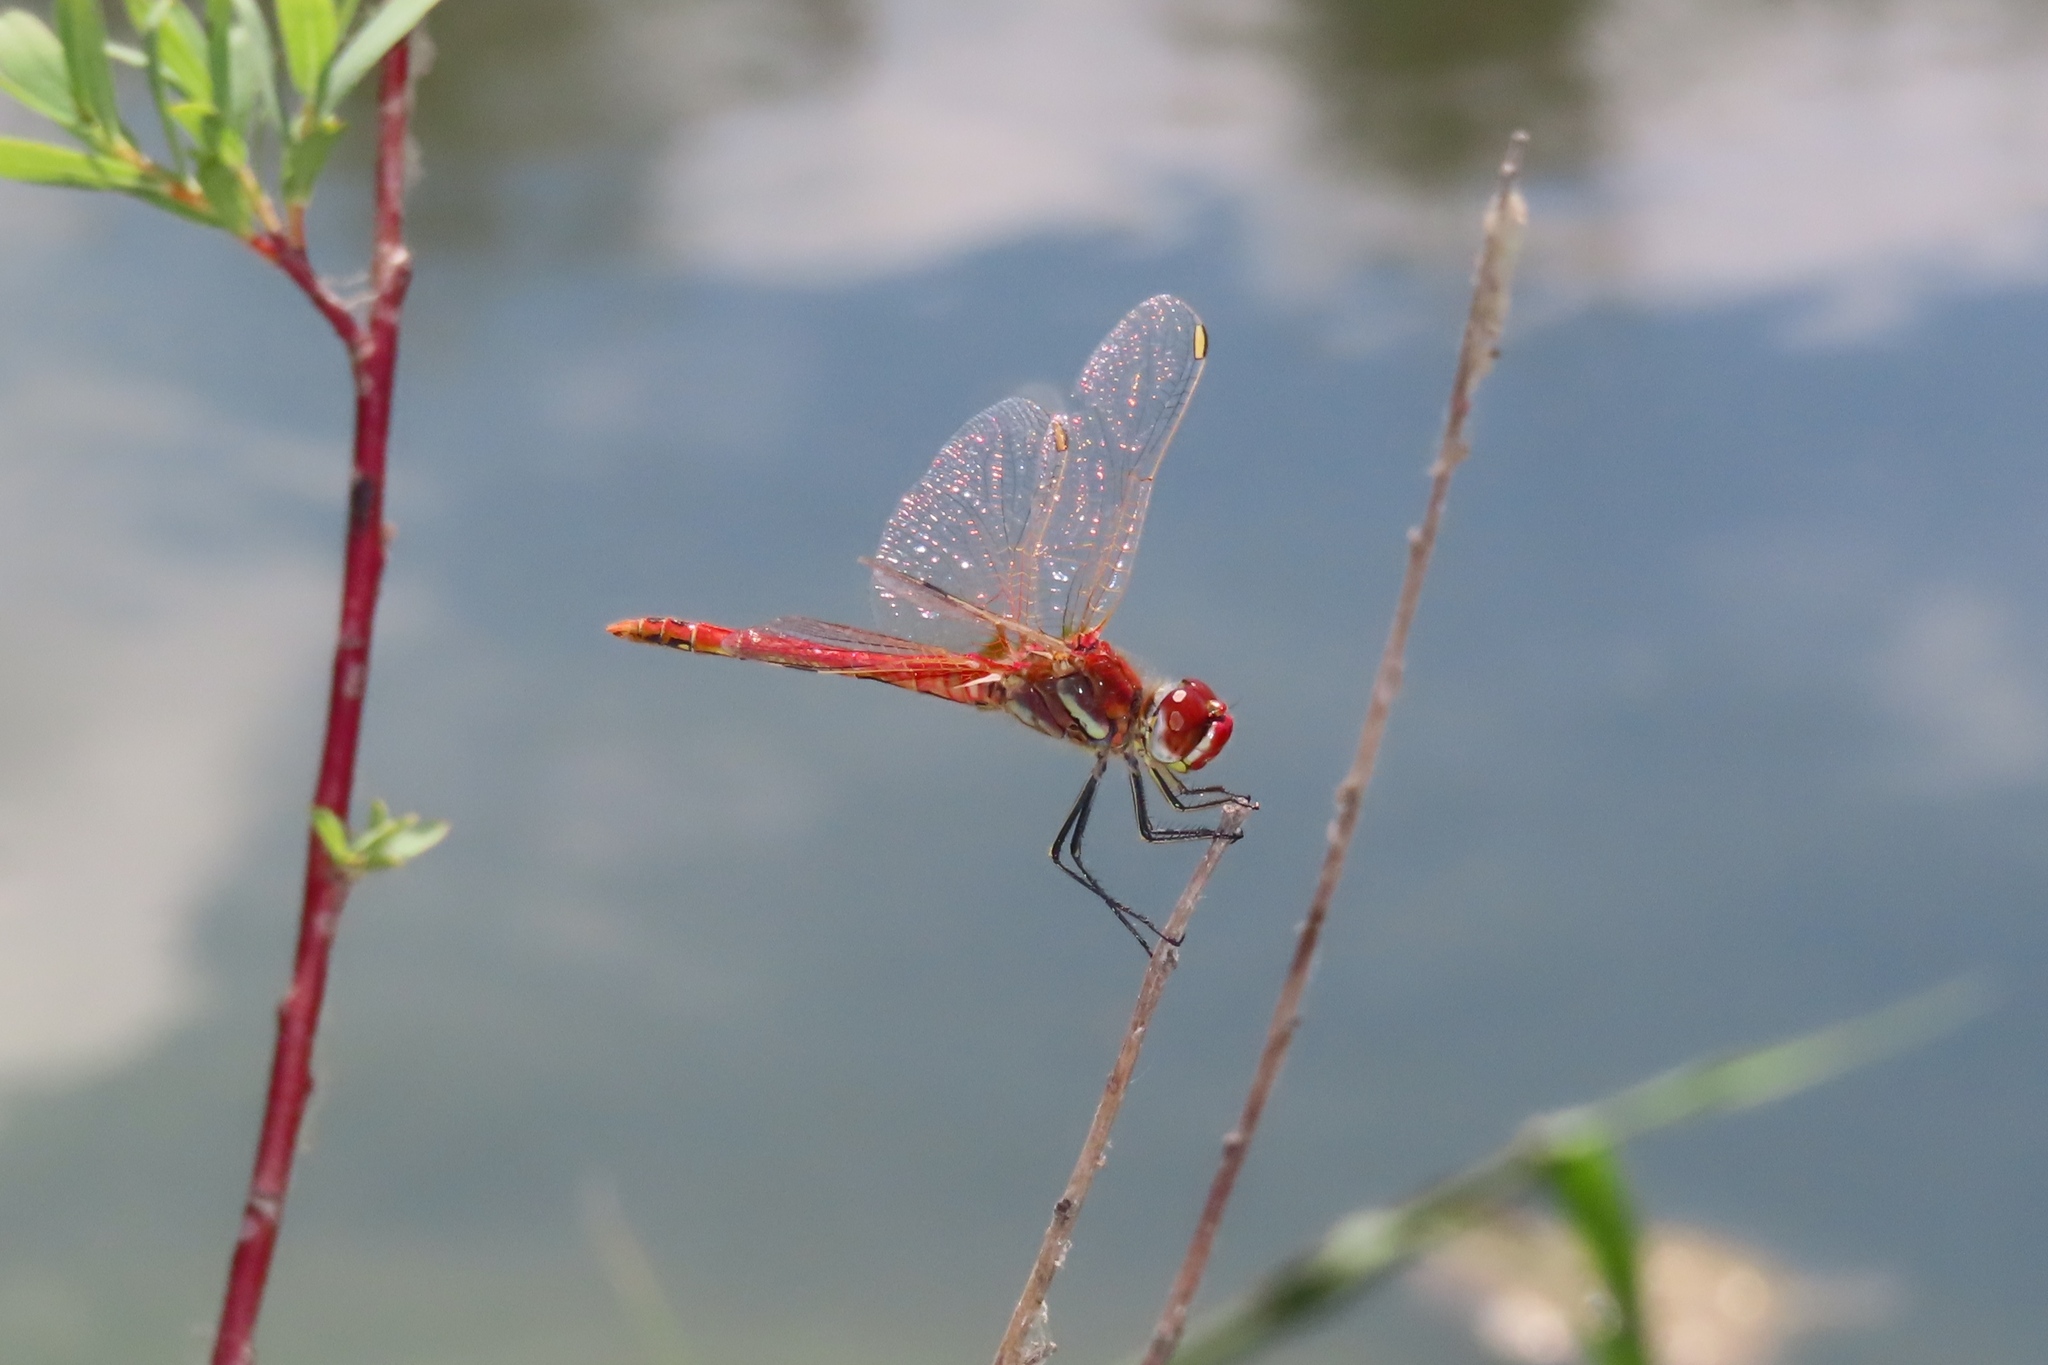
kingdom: Animalia
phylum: Arthropoda
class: Insecta
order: Odonata
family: Libellulidae
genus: Sympetrum
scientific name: Sympetrum fonscolombii
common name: Red-veined darter
